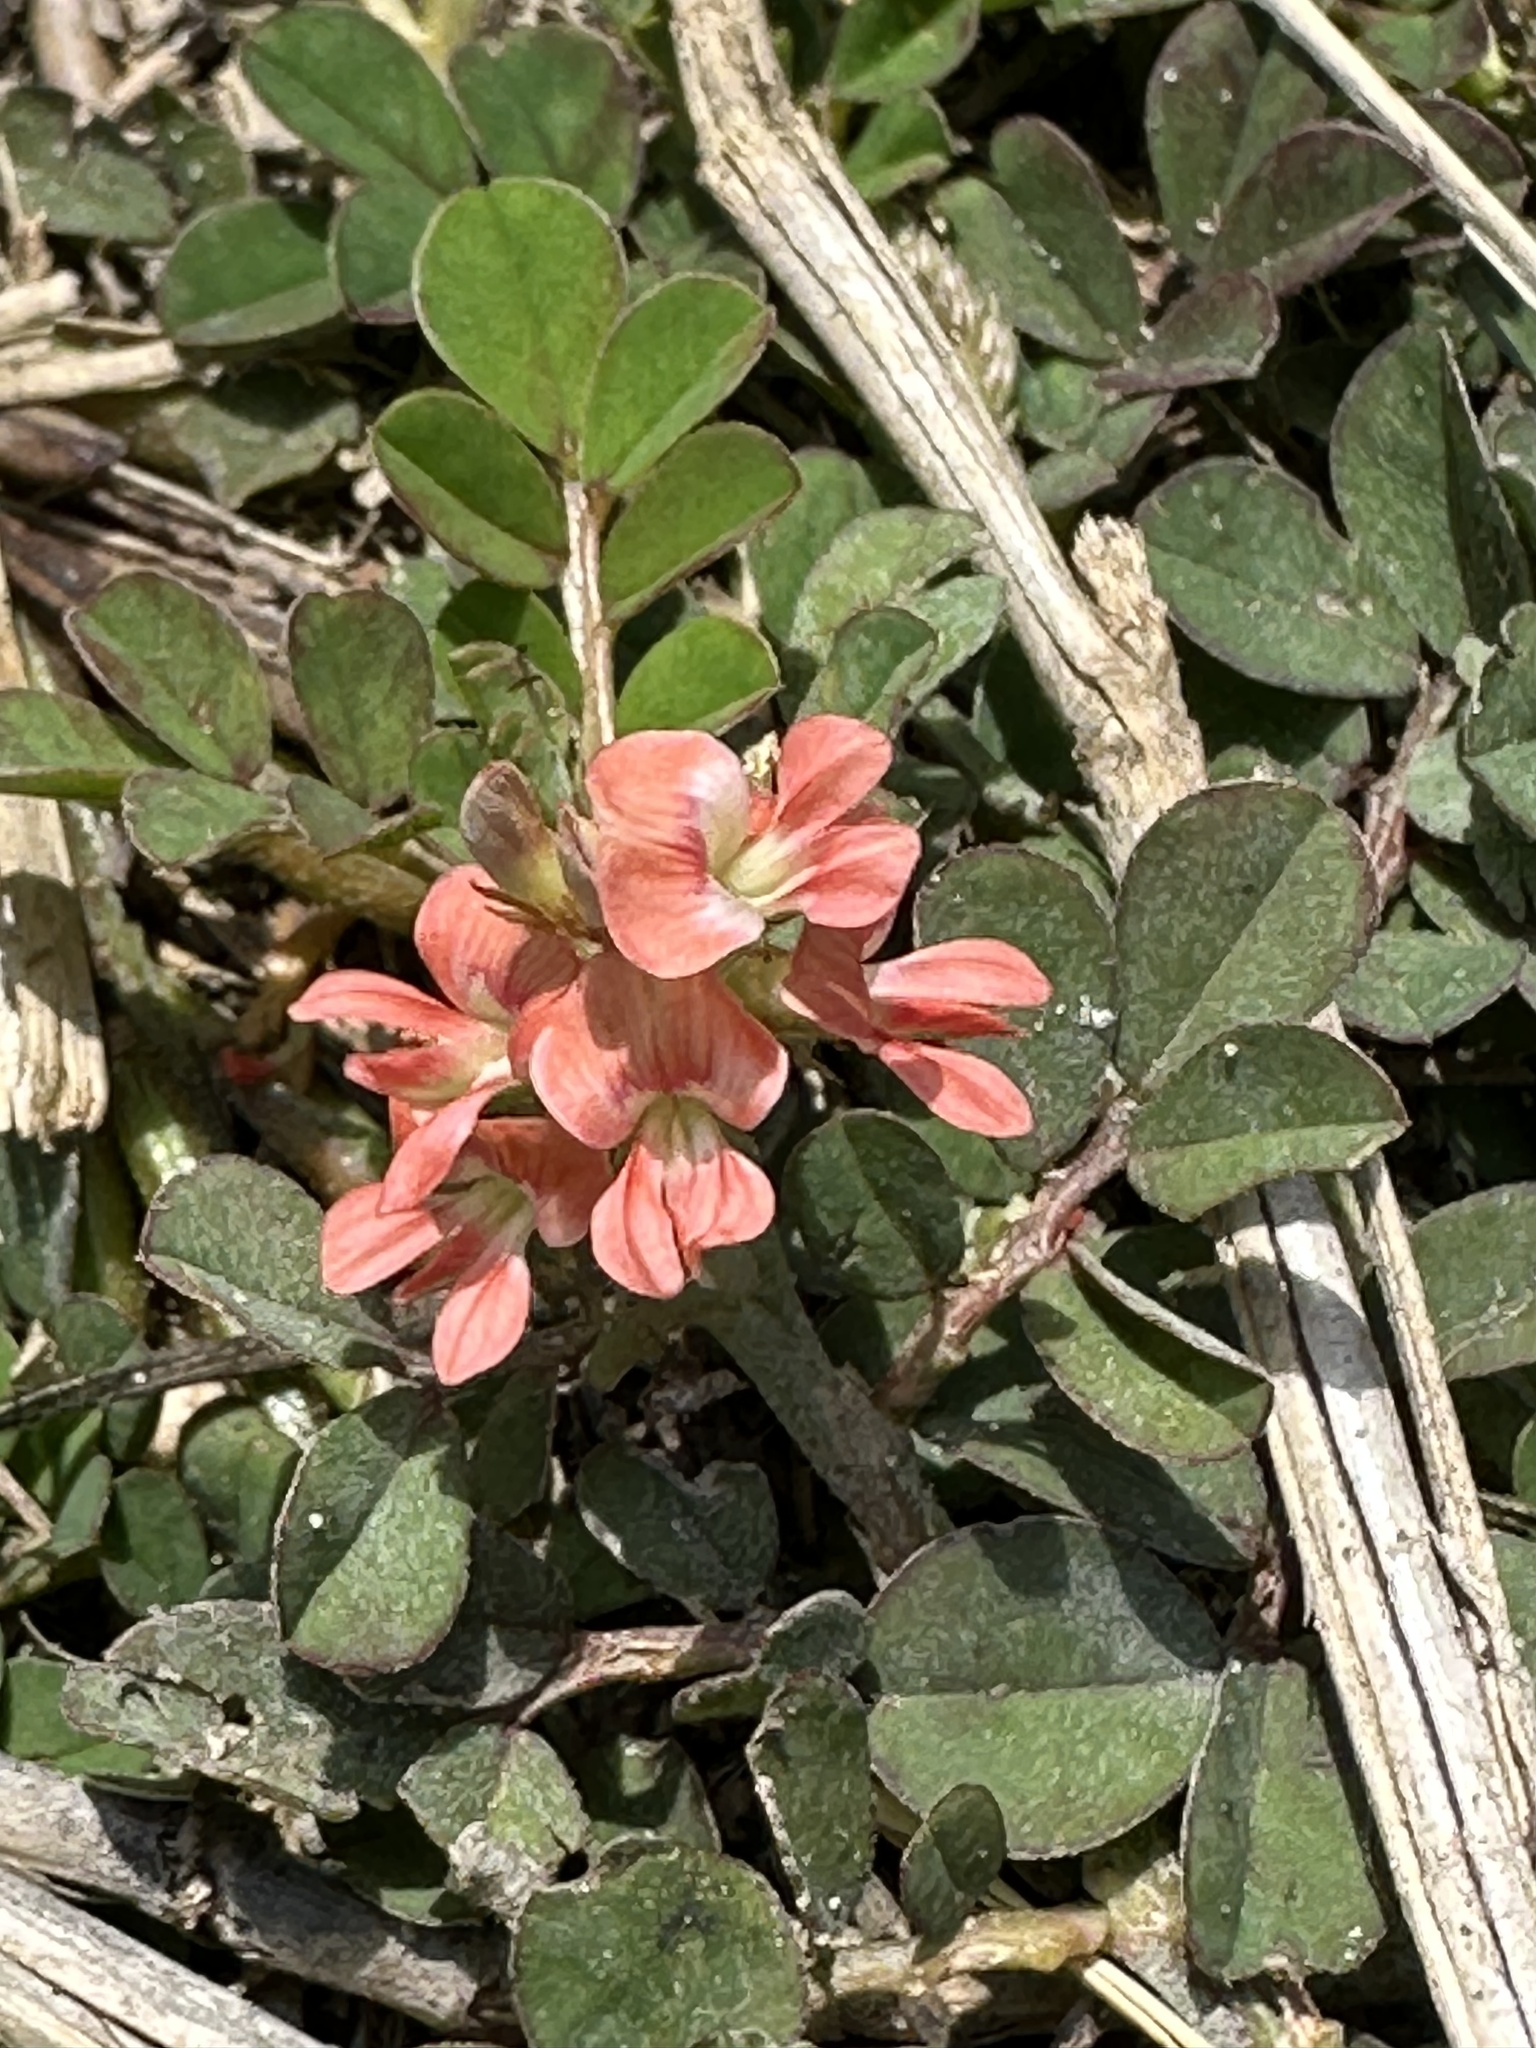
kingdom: Plantae
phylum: Tracheophyta
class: Magnoliopsida
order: Fabales
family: Fabaceae
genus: Indigofera
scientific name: Indigofera spicata
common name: Creeping indigo
